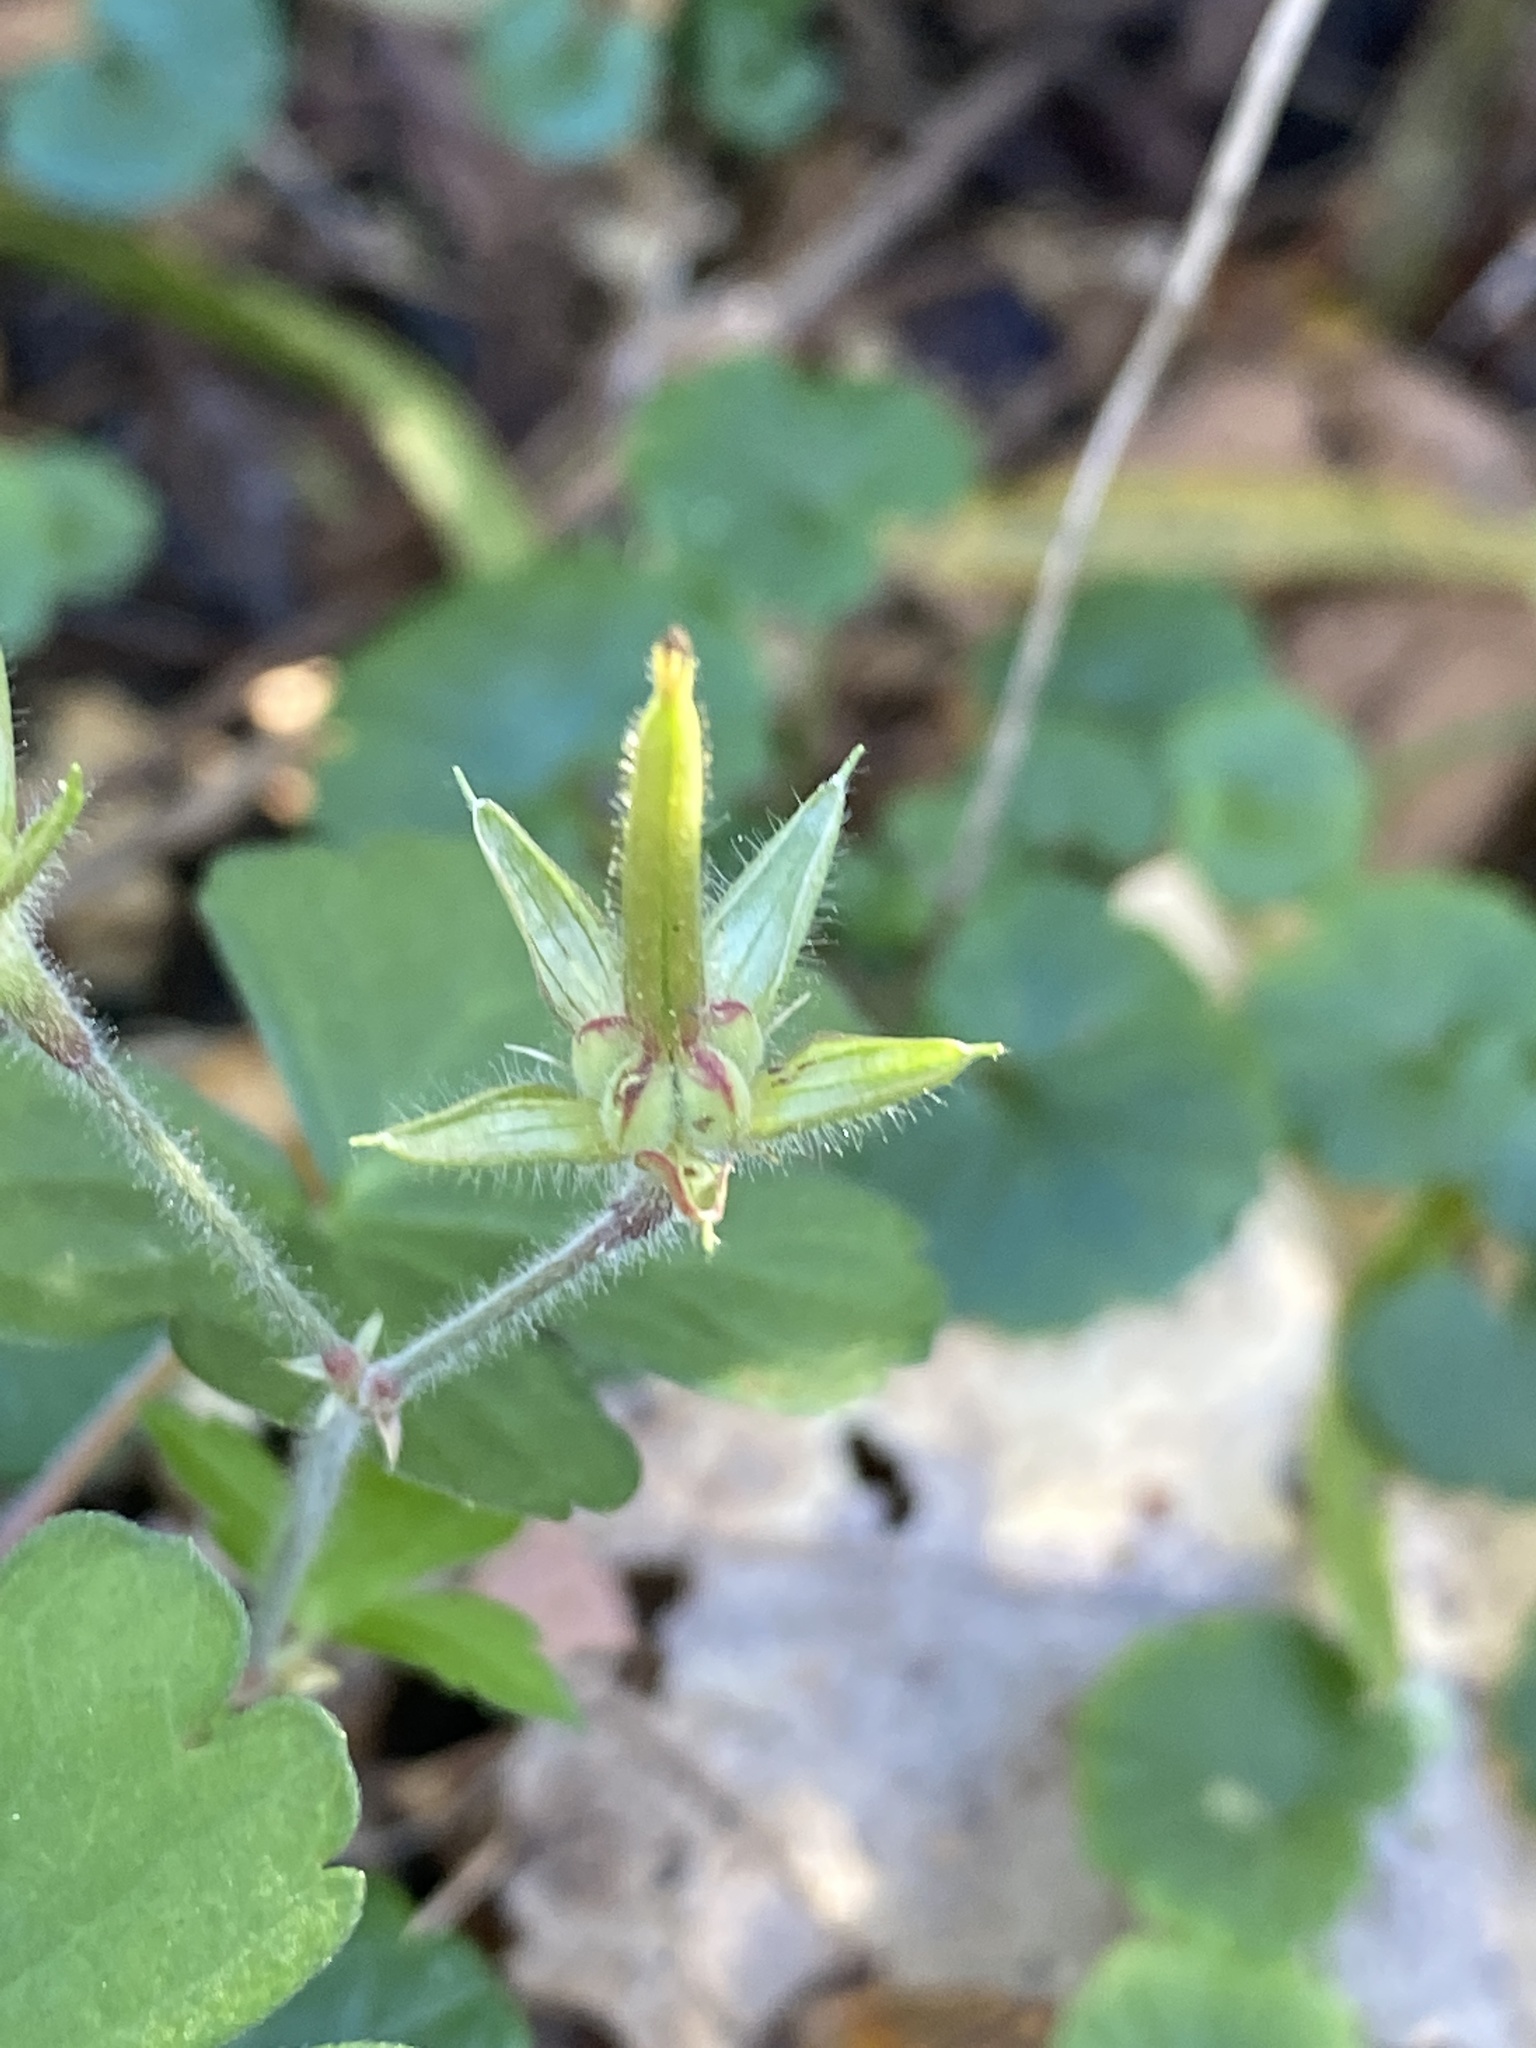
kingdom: Plantae
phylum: Tracheophyta
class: Magnoliopsida
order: Geraniales
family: Geraniaceae
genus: Geranium
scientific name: Geranium thunbergii
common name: Dewdrop crane's-bill
